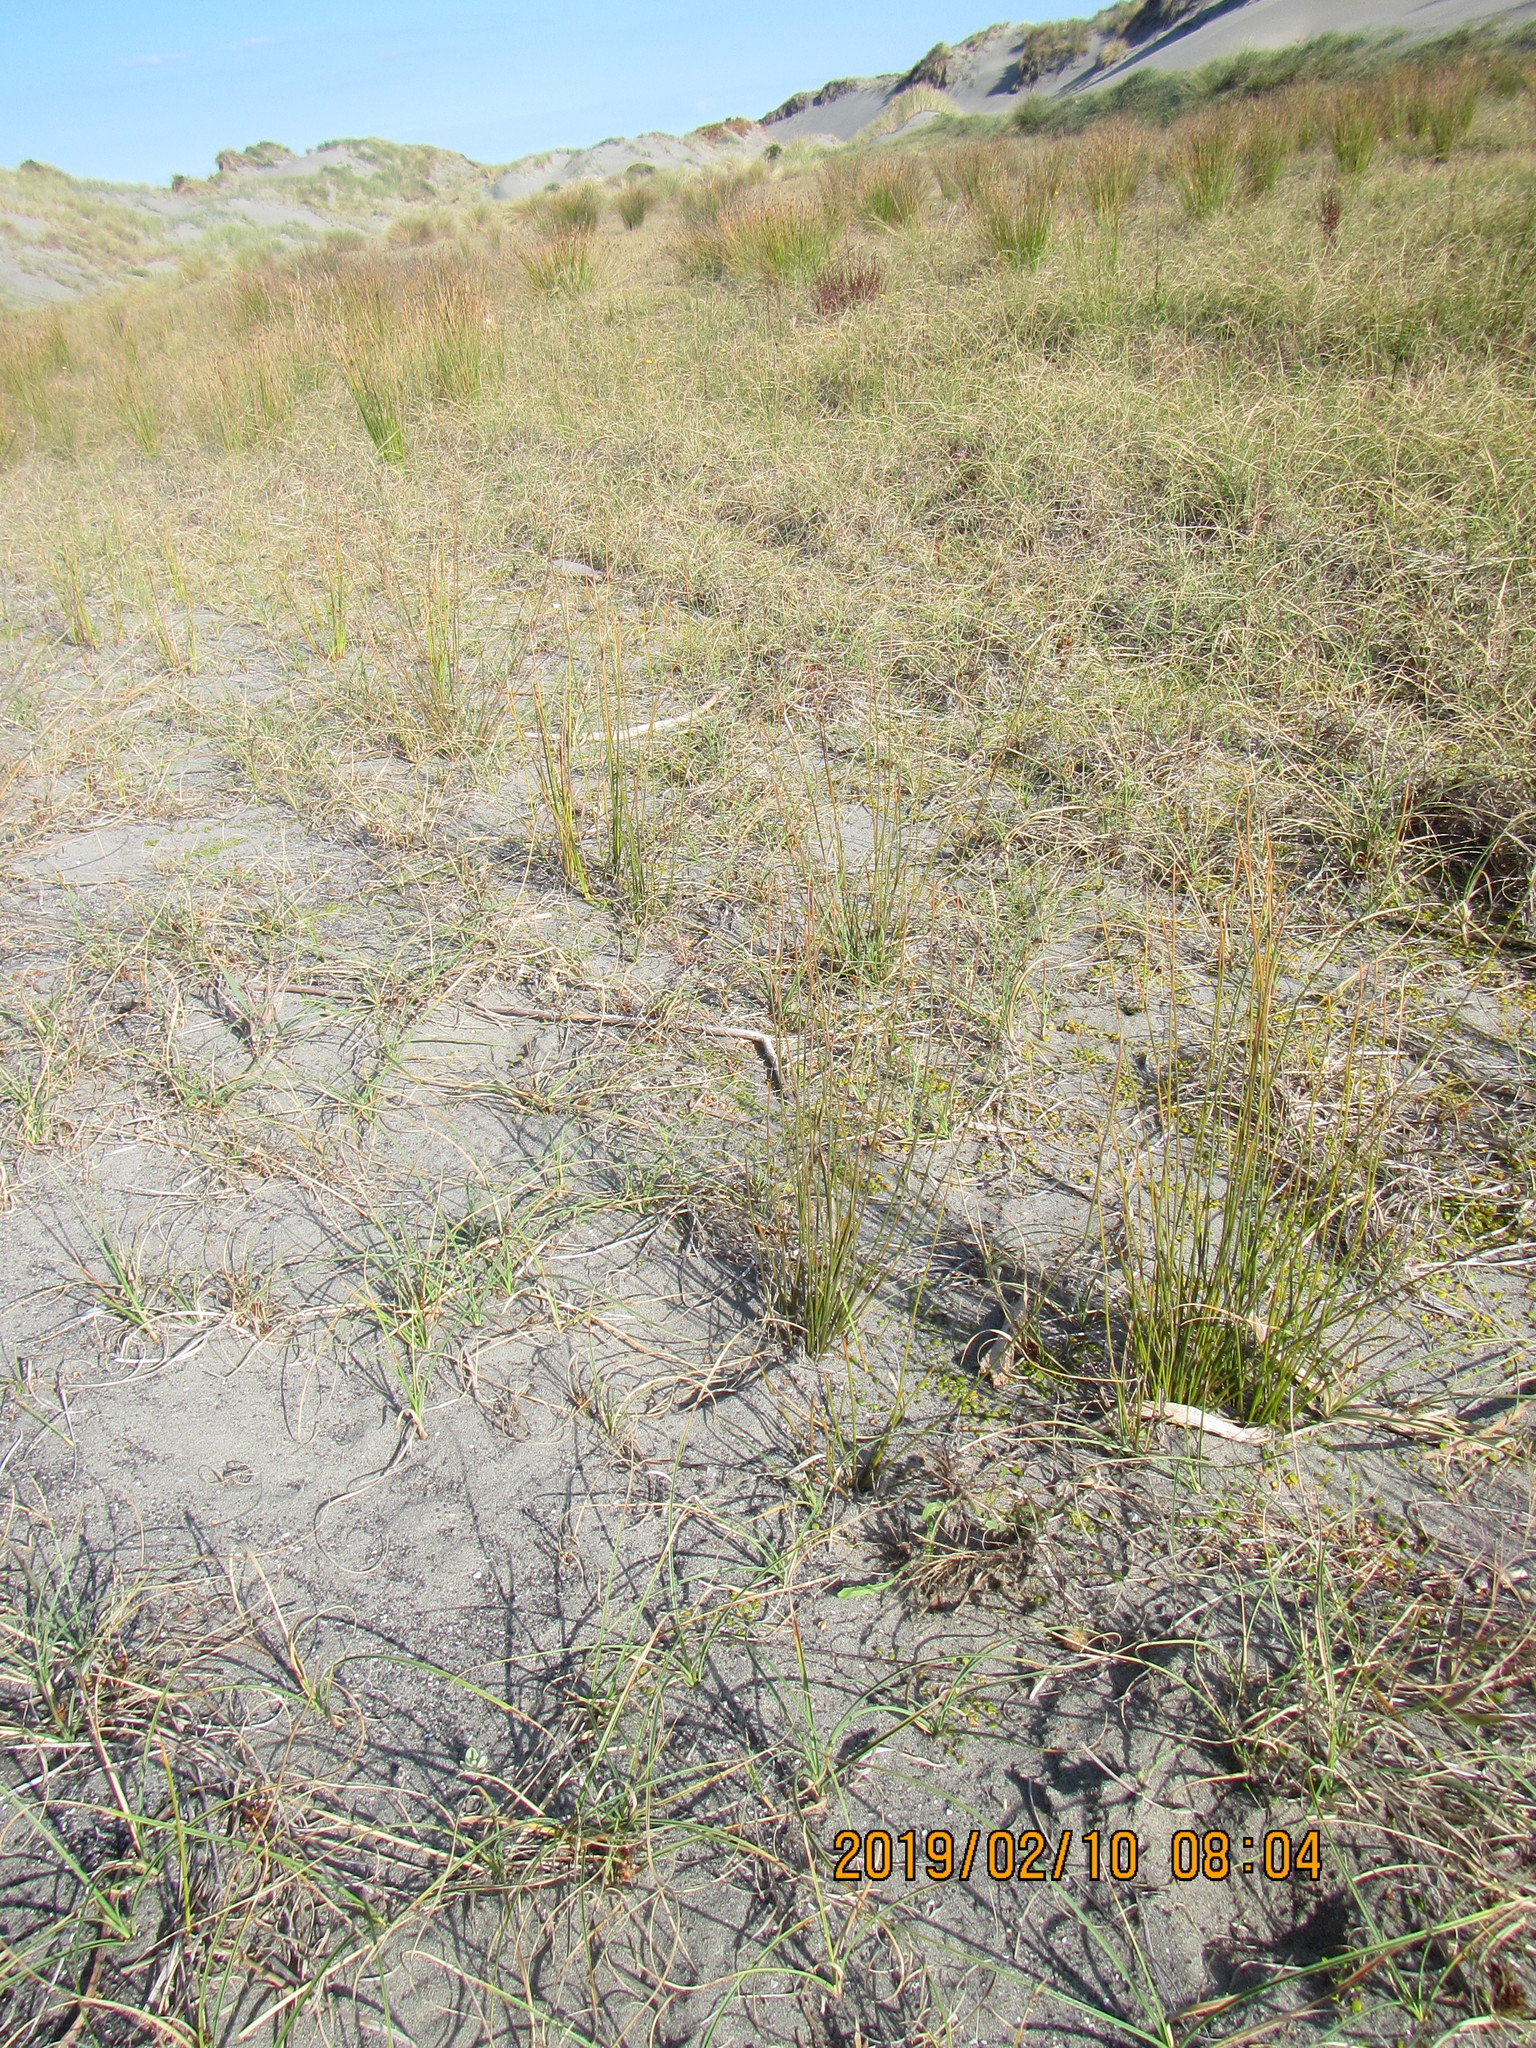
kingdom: Plantae
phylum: Tracheophyta
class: Magnoliopsida
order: Asterales
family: Asteraceae
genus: Hypochaeris
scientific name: Hypochaeris radicata
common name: Flatweed
